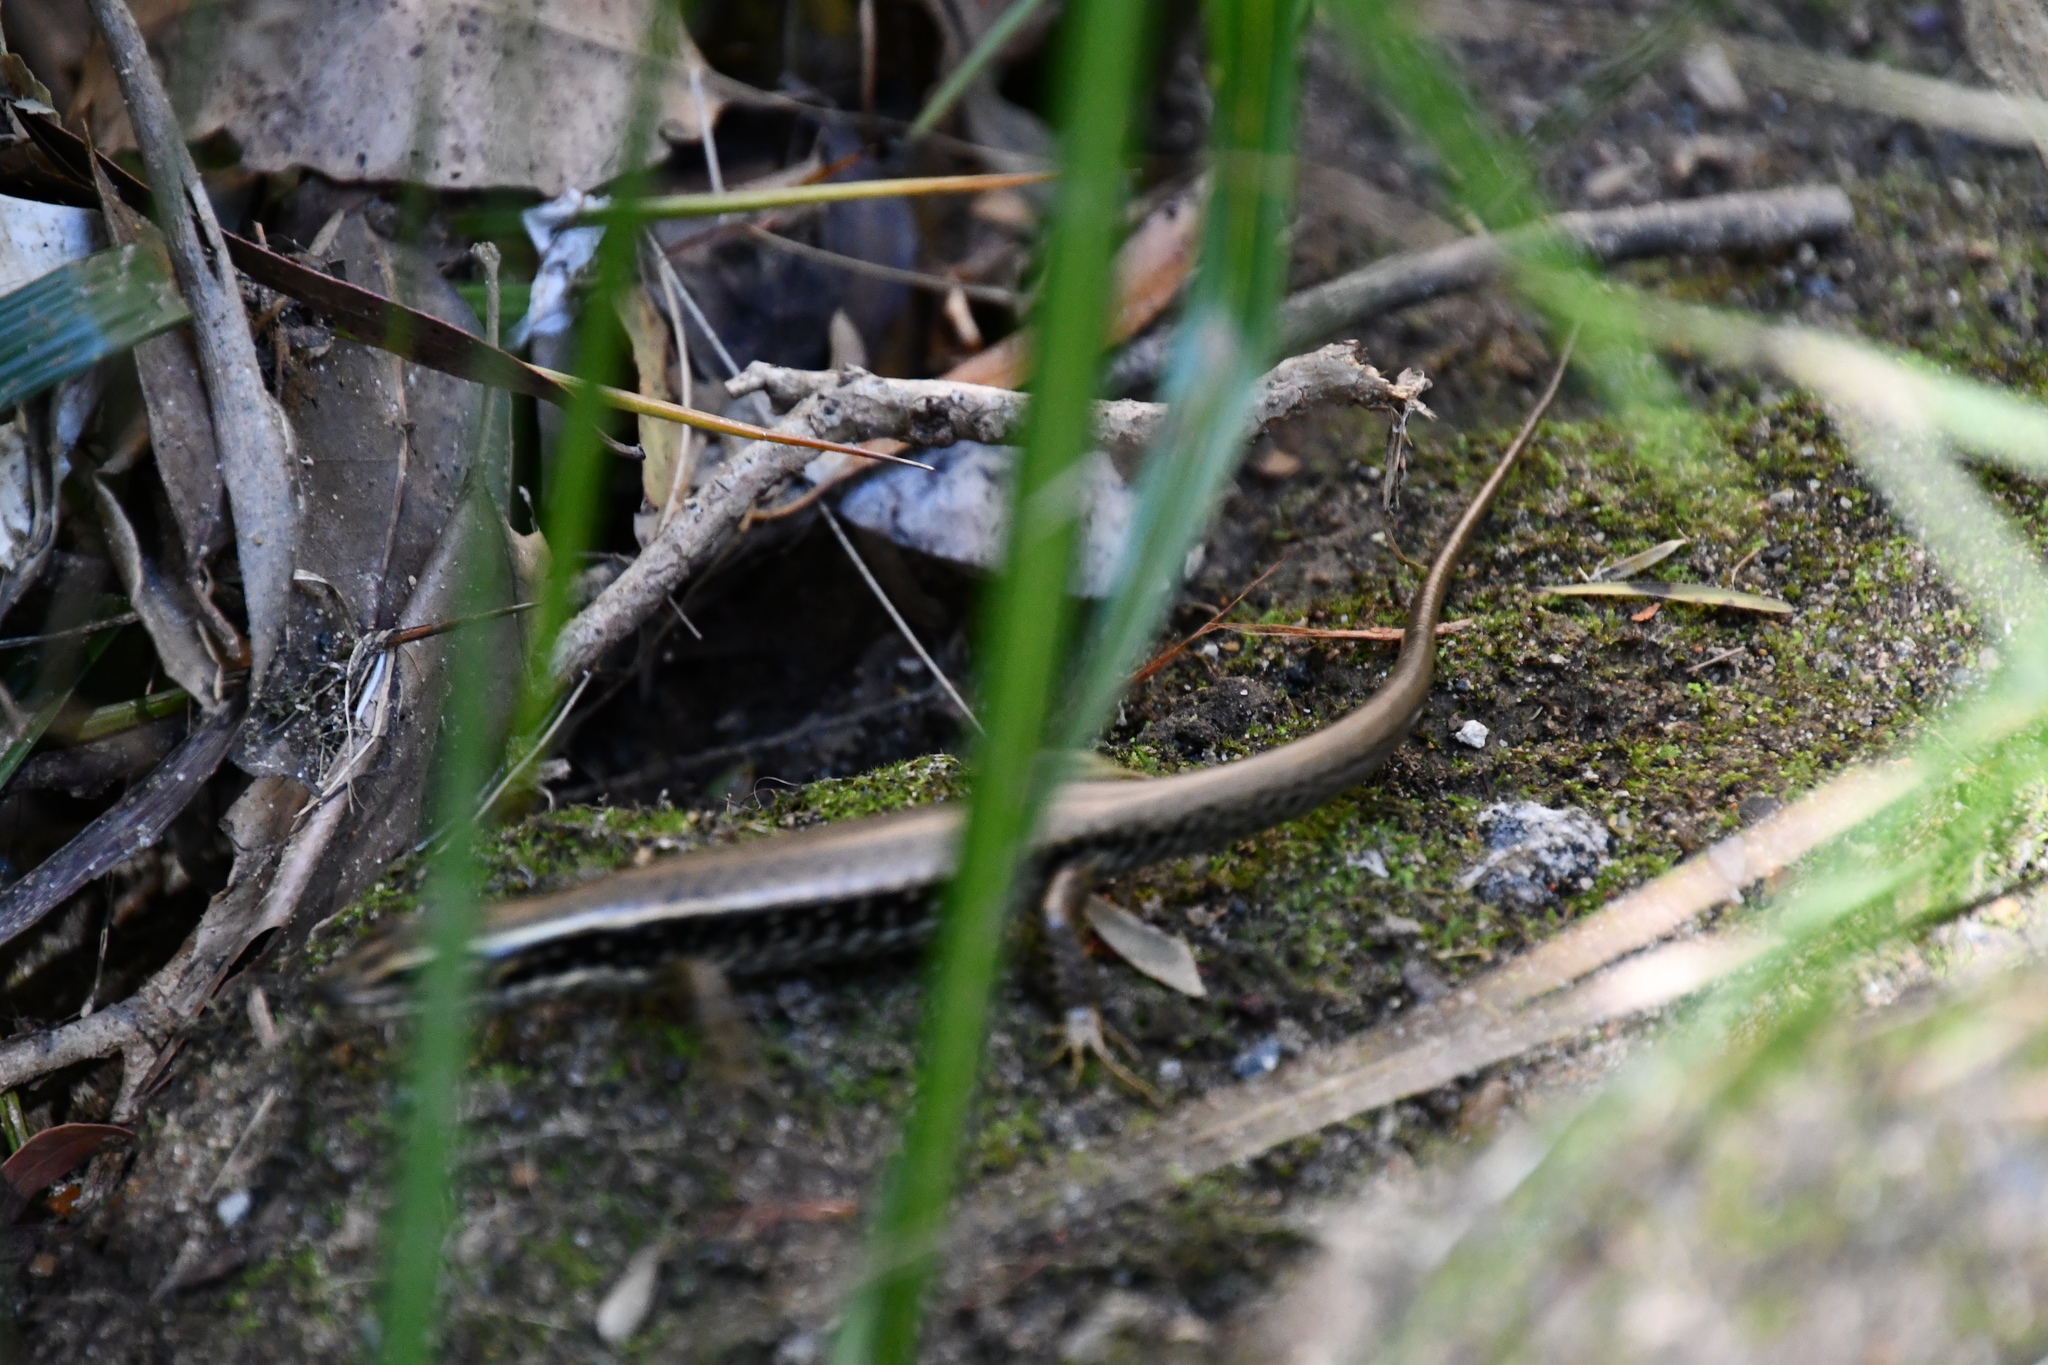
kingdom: Animalia
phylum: Chordata
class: Squamata
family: Scincidae
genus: Eulamprus
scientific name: Eulamprus quoyii
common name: Eastern water skink
